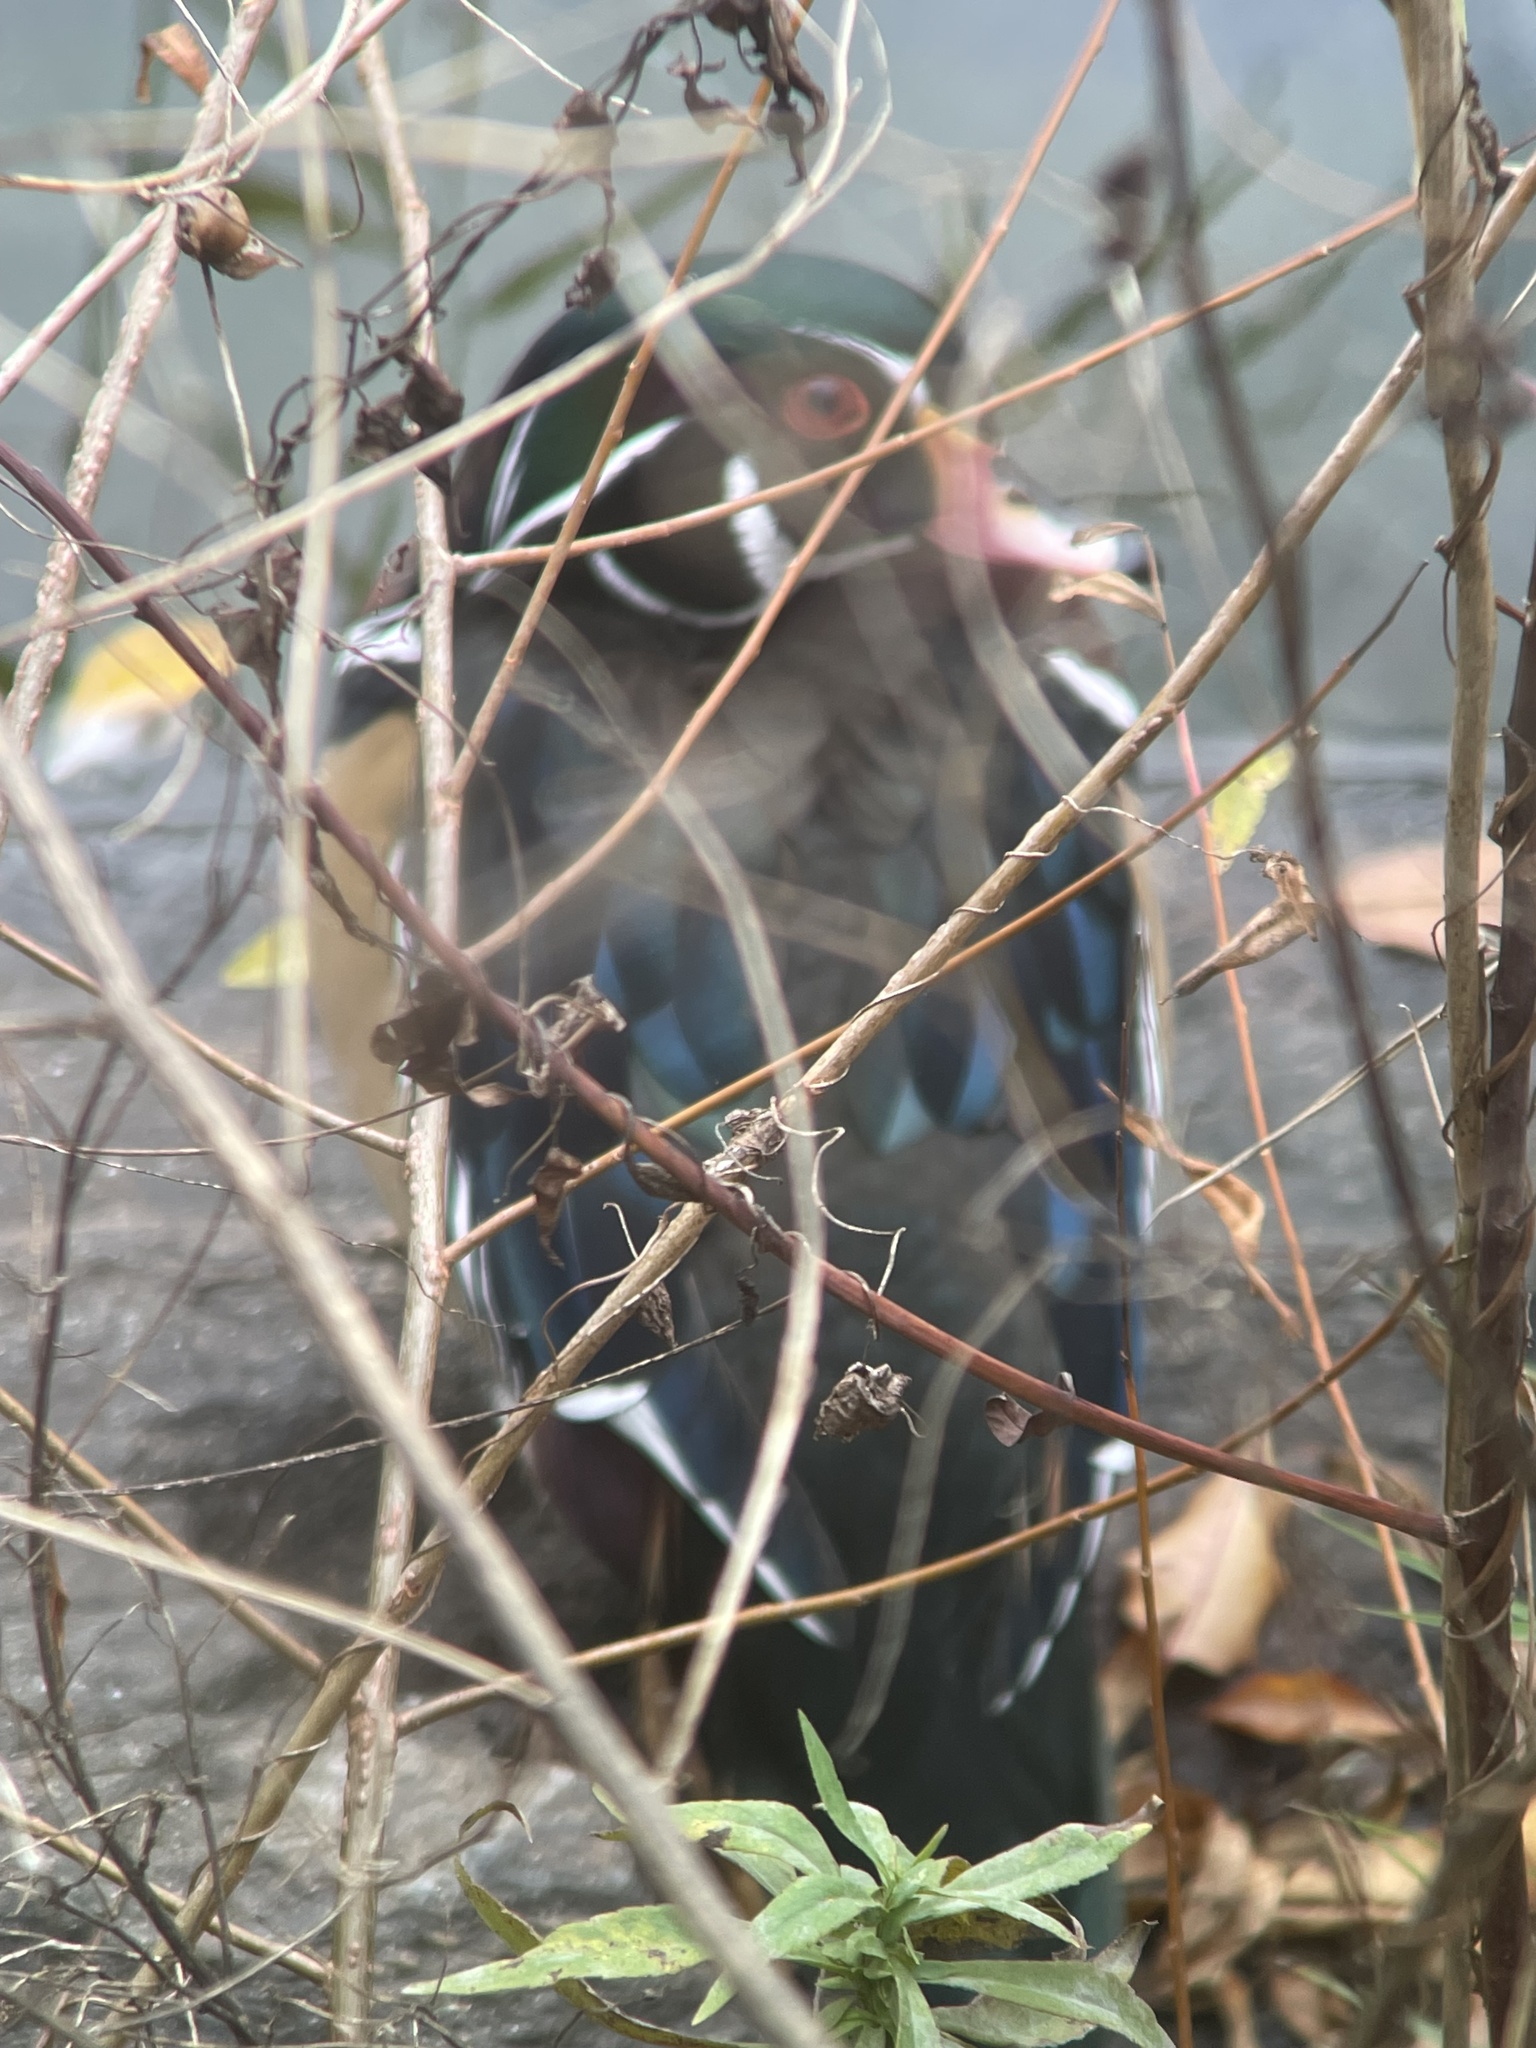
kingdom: Animalia
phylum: Chordata
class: Aves
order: Anseriformes
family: Anatidae
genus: Aix
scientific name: Aix sponsa
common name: Wood duck
